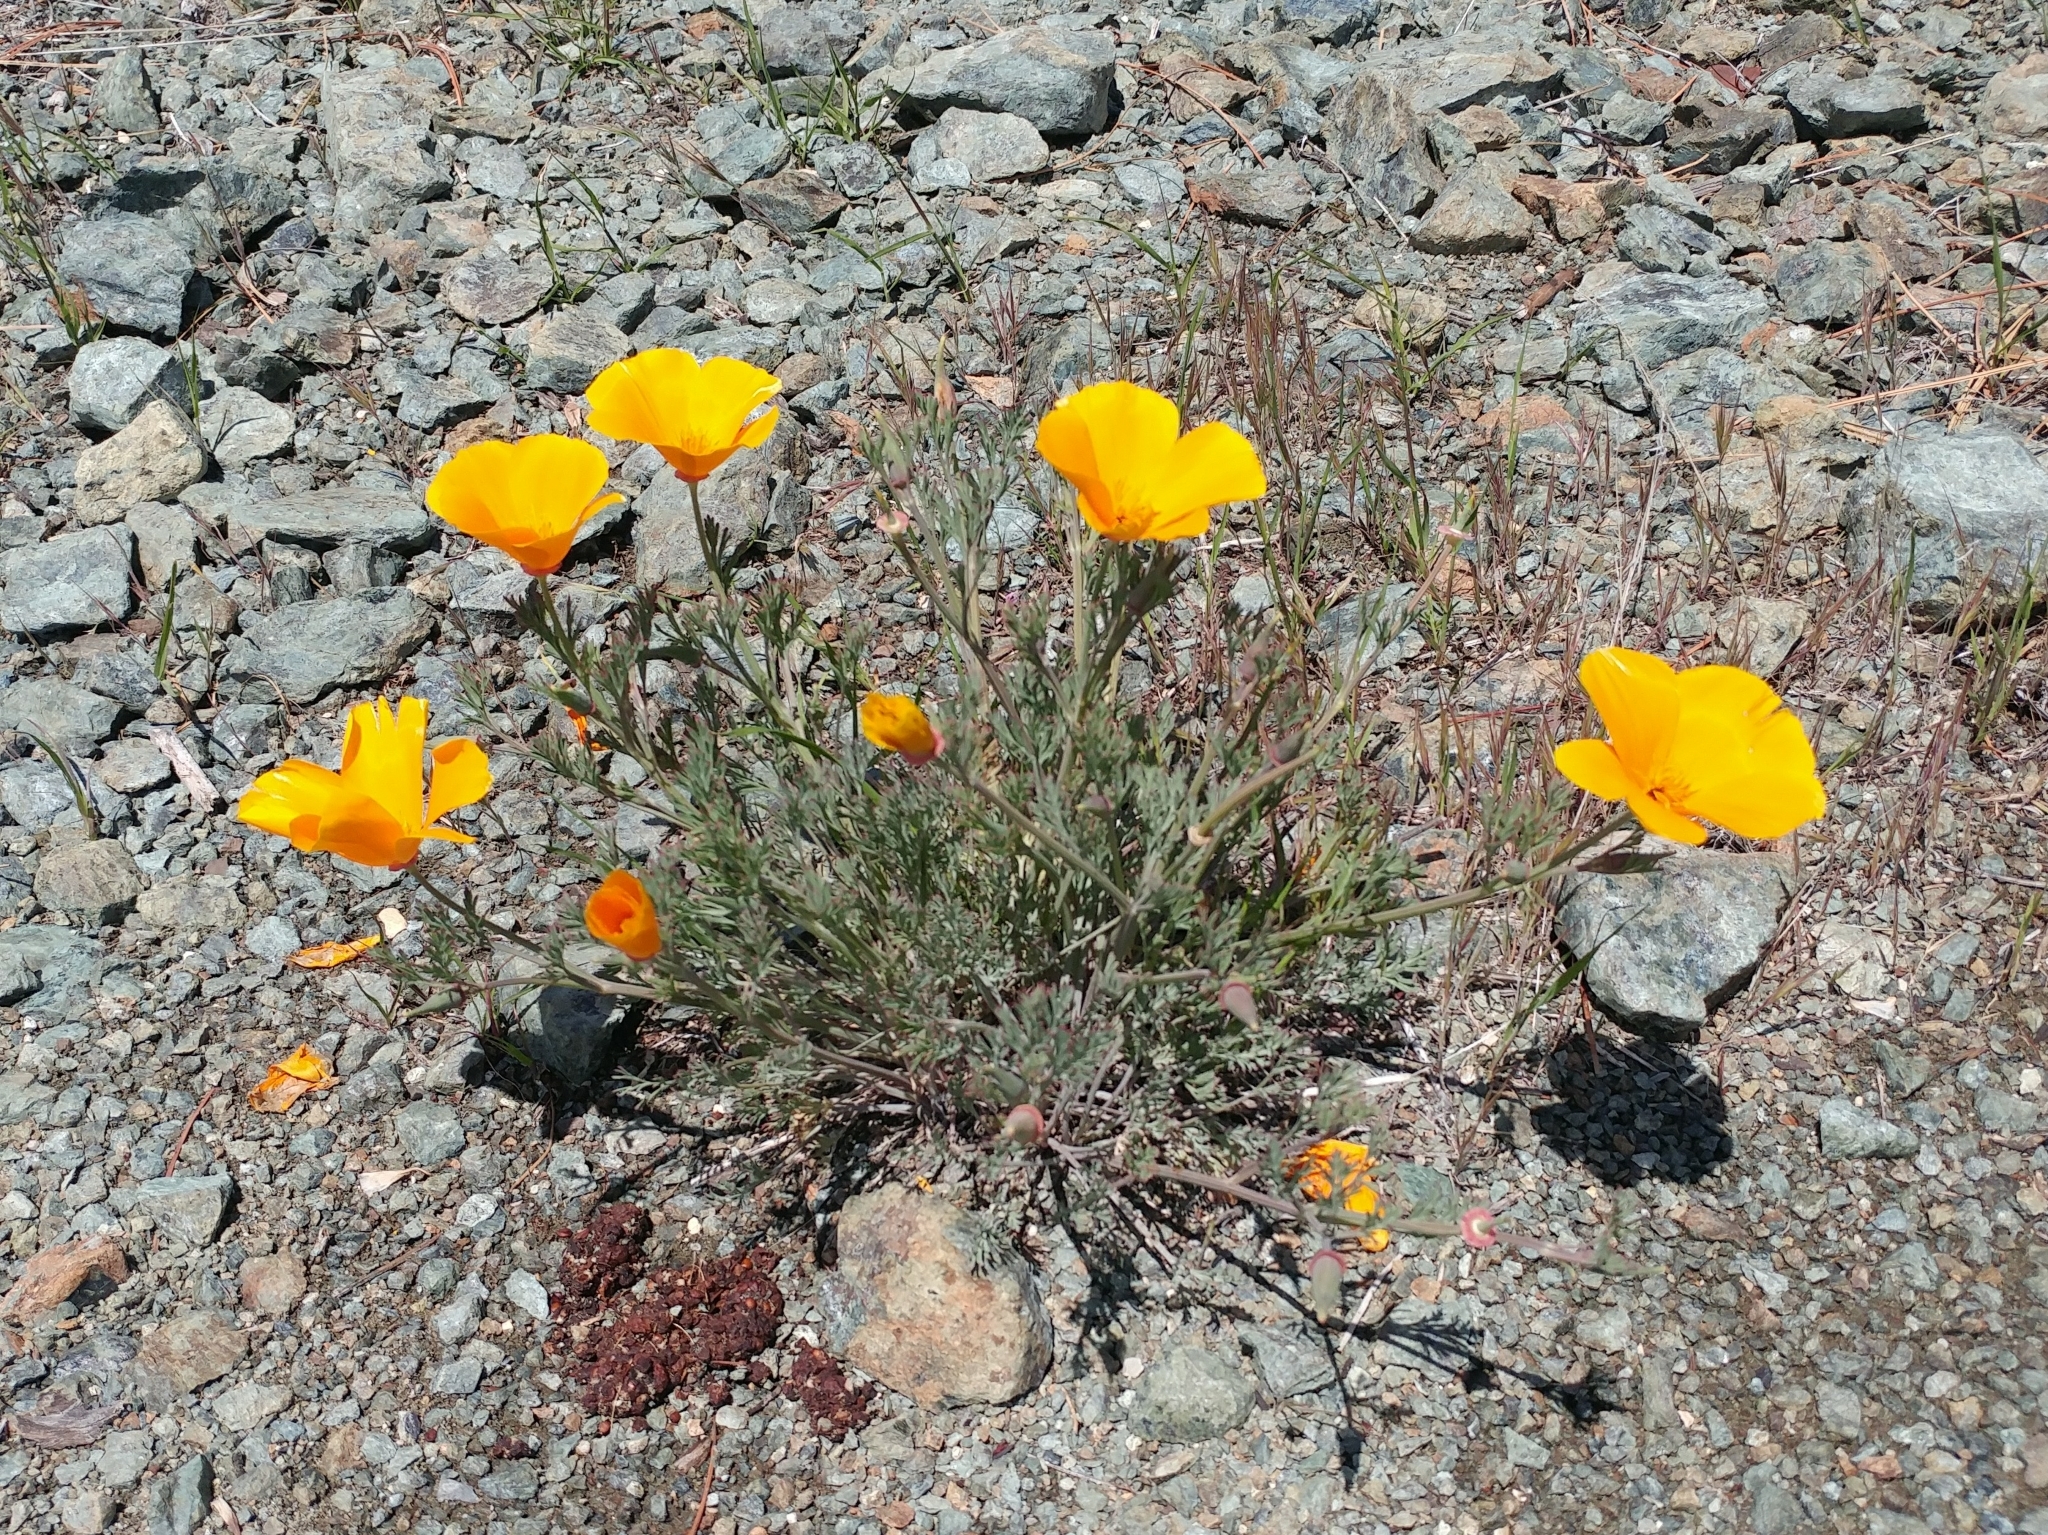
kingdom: Plantae
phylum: Tracheophyta
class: Magnoliopsida
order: Ranunculales
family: Papaveraceae
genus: Eschscholzia
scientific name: Eschscholzia californica
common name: California poppy
